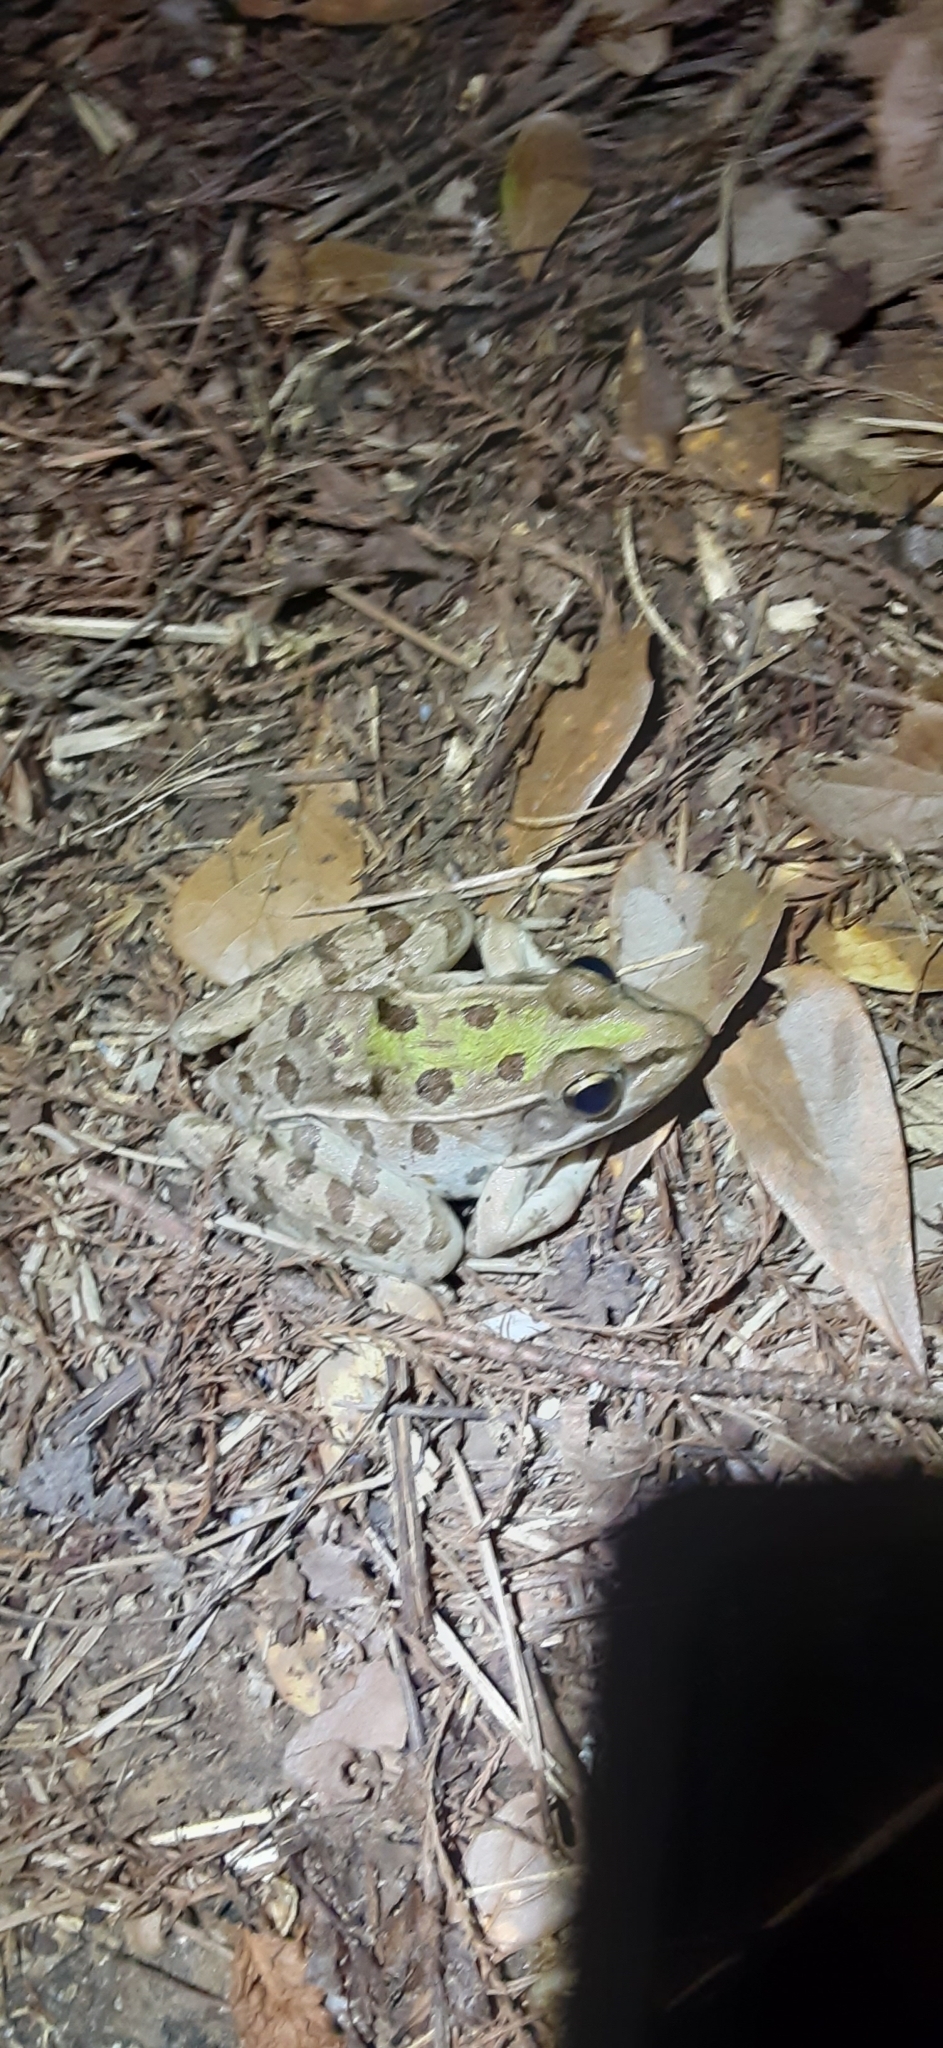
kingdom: Animalia
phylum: Chordata
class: Amphibia
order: Anura
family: Ranidae
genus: Lithobates
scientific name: Lithobates sphenocephalus
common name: Southern leopard frog
